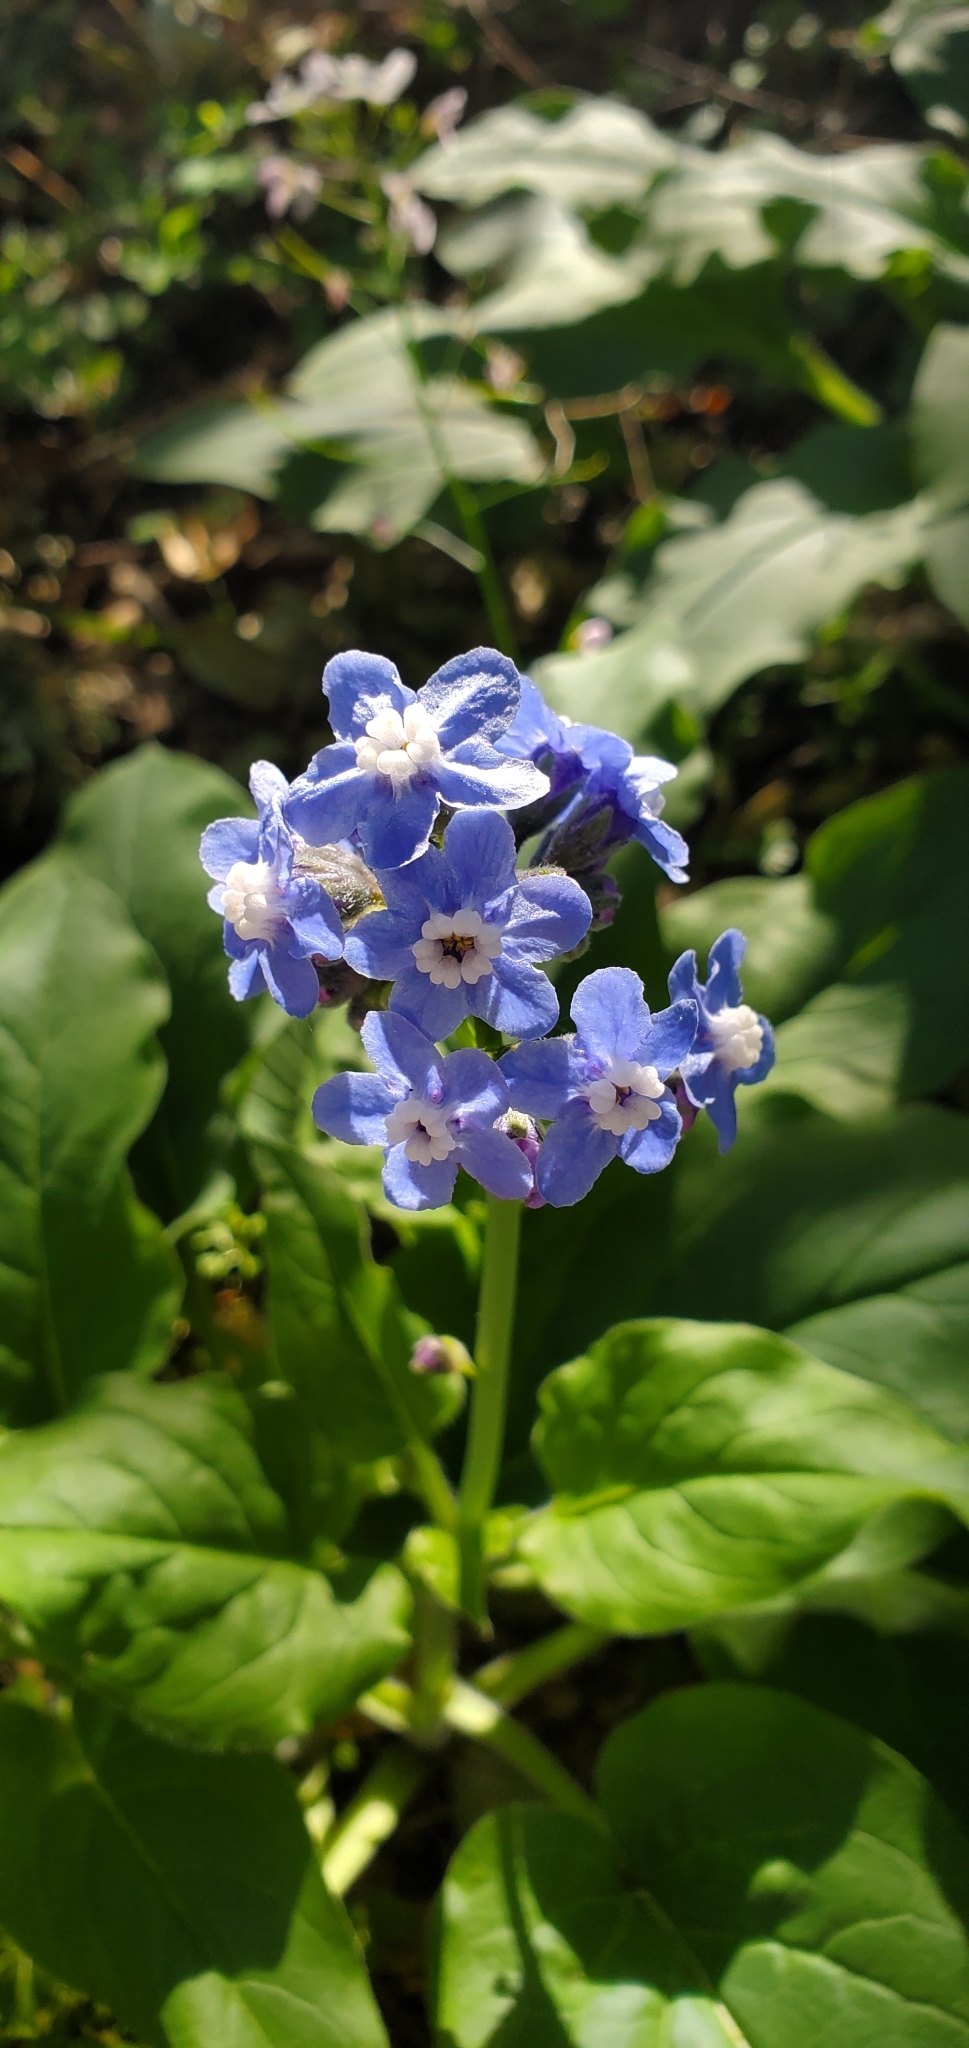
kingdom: Plantae
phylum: Tracheophyta
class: Magnoliopsida
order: Boraginales
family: Boraginaceae
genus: Adelinia
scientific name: Adelinia grande
